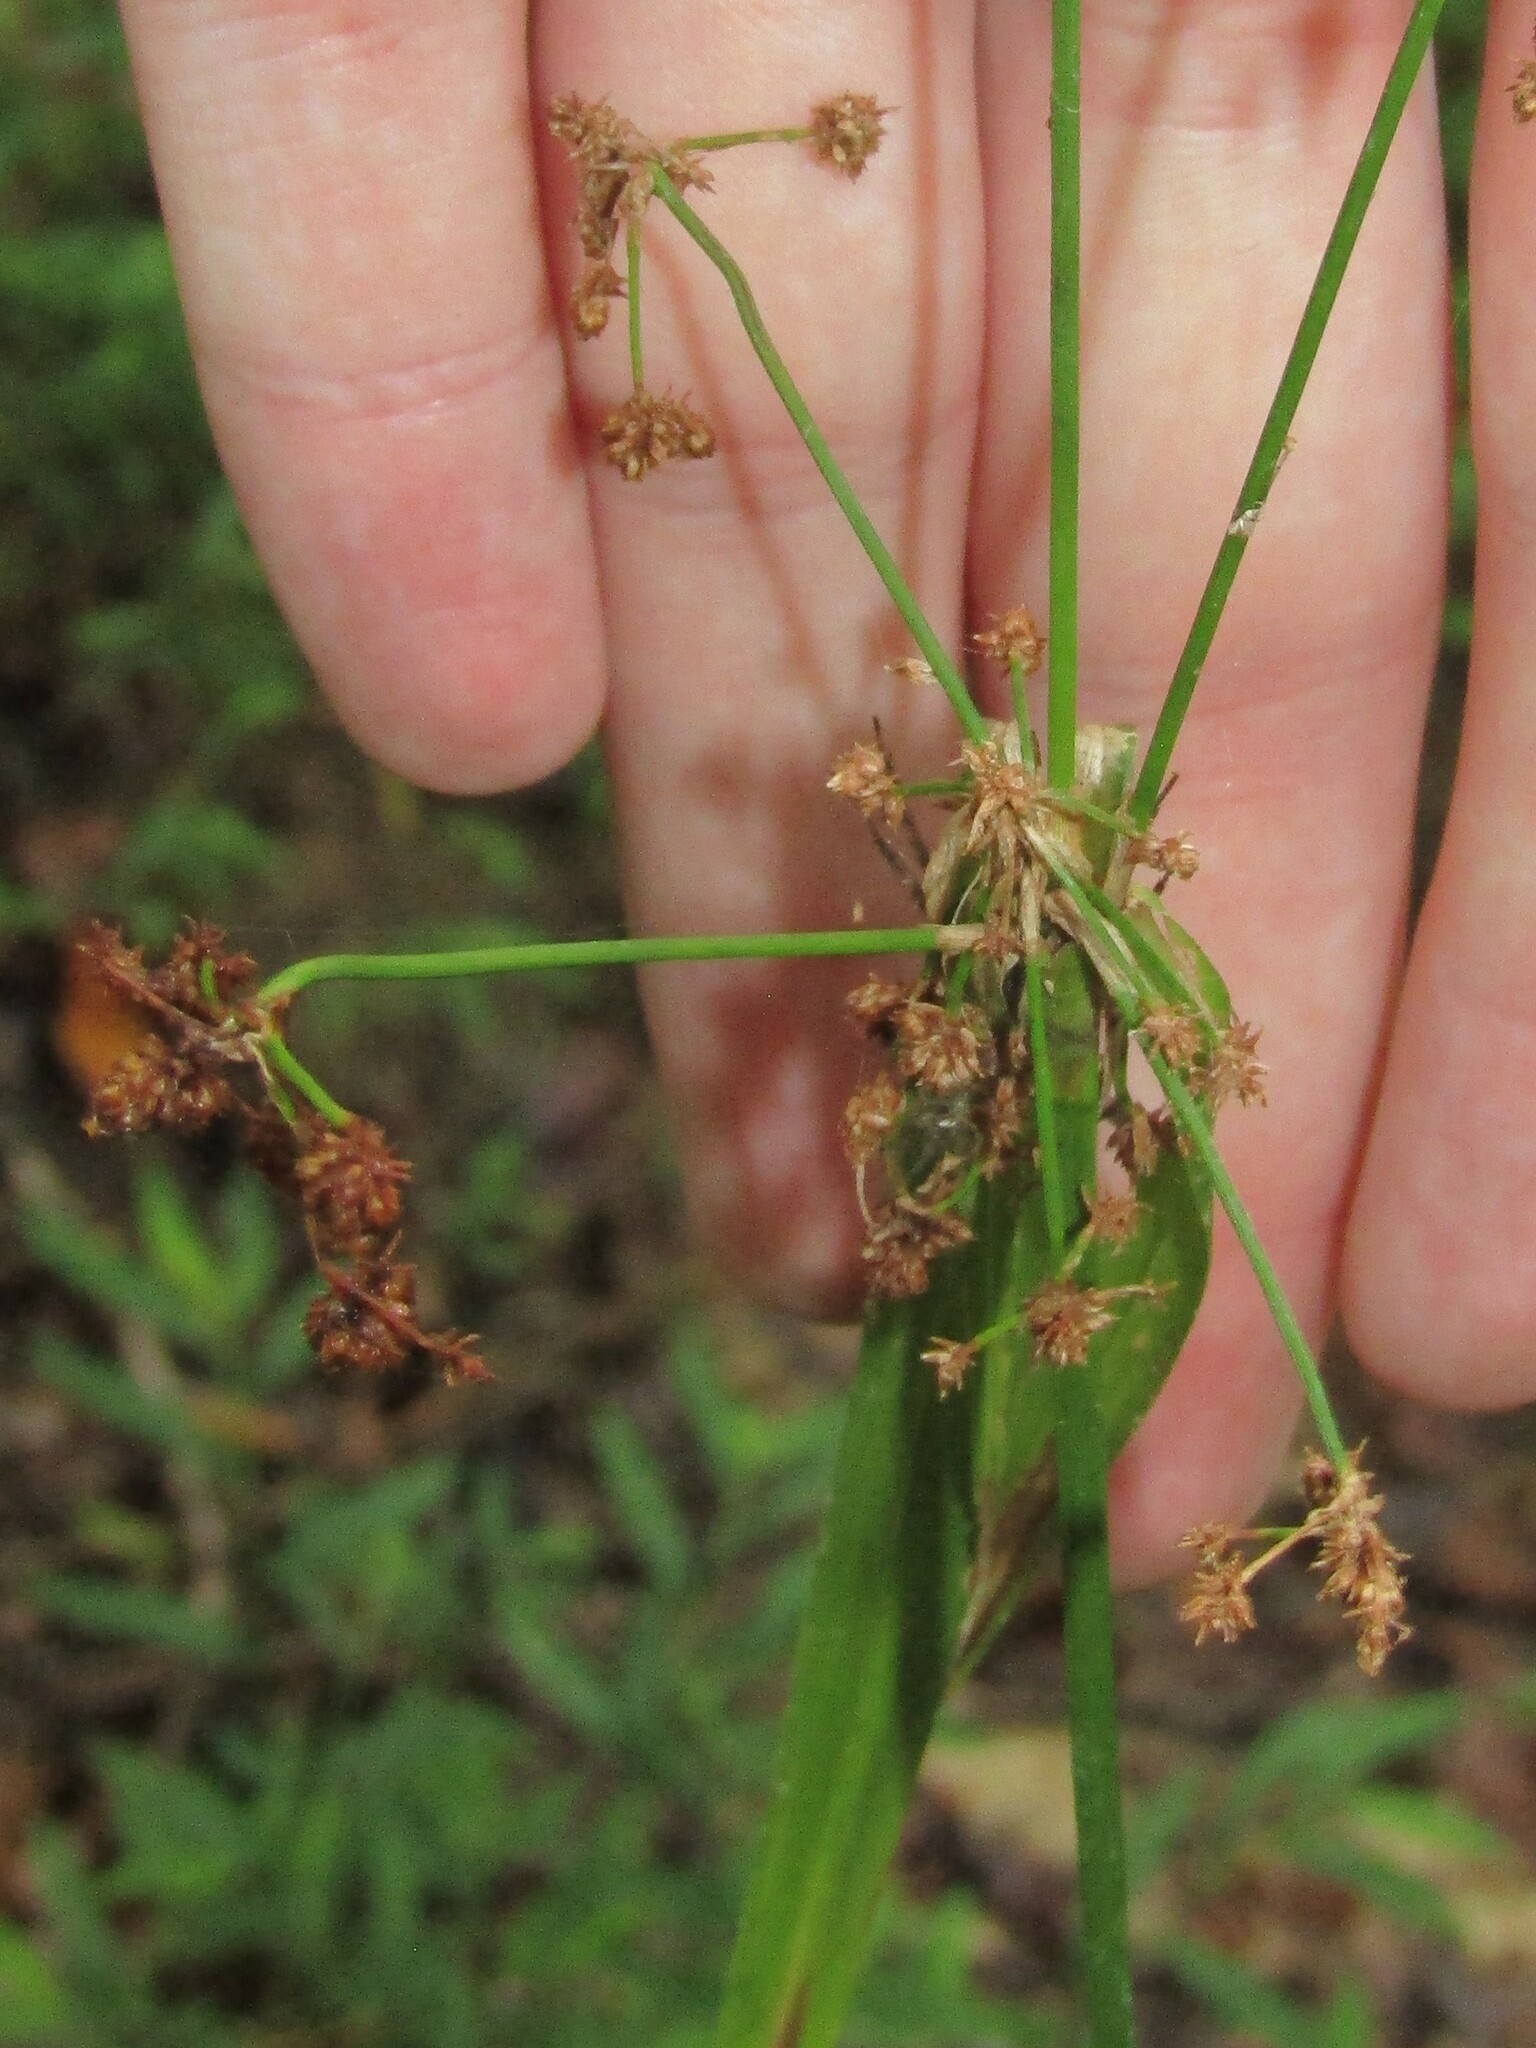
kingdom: Plantae
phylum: Tracheophyta
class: Liliopsida
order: Poales
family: Cyperaceae
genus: Scirpus
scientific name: Scirpus georgianus
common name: Bristleless dark-green bulrush
